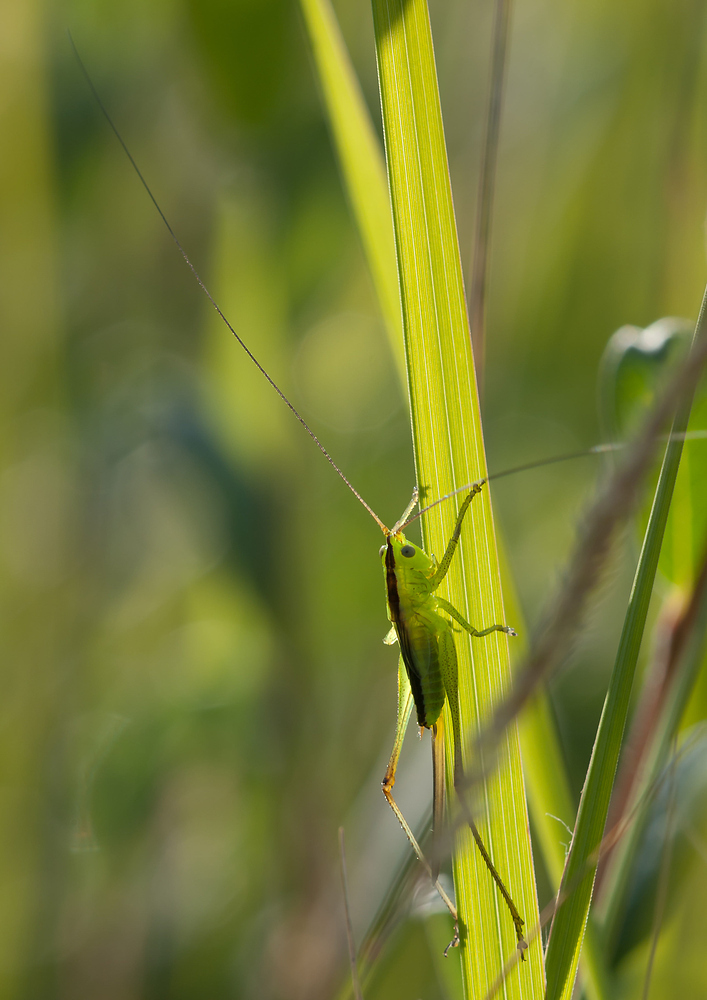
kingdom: Animalia
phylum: Arthropoda
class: Insecta
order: Orthoptera
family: Tettigoniidae
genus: Conocephalus
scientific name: Conocephalus fuscus
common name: Long-winged conehead
